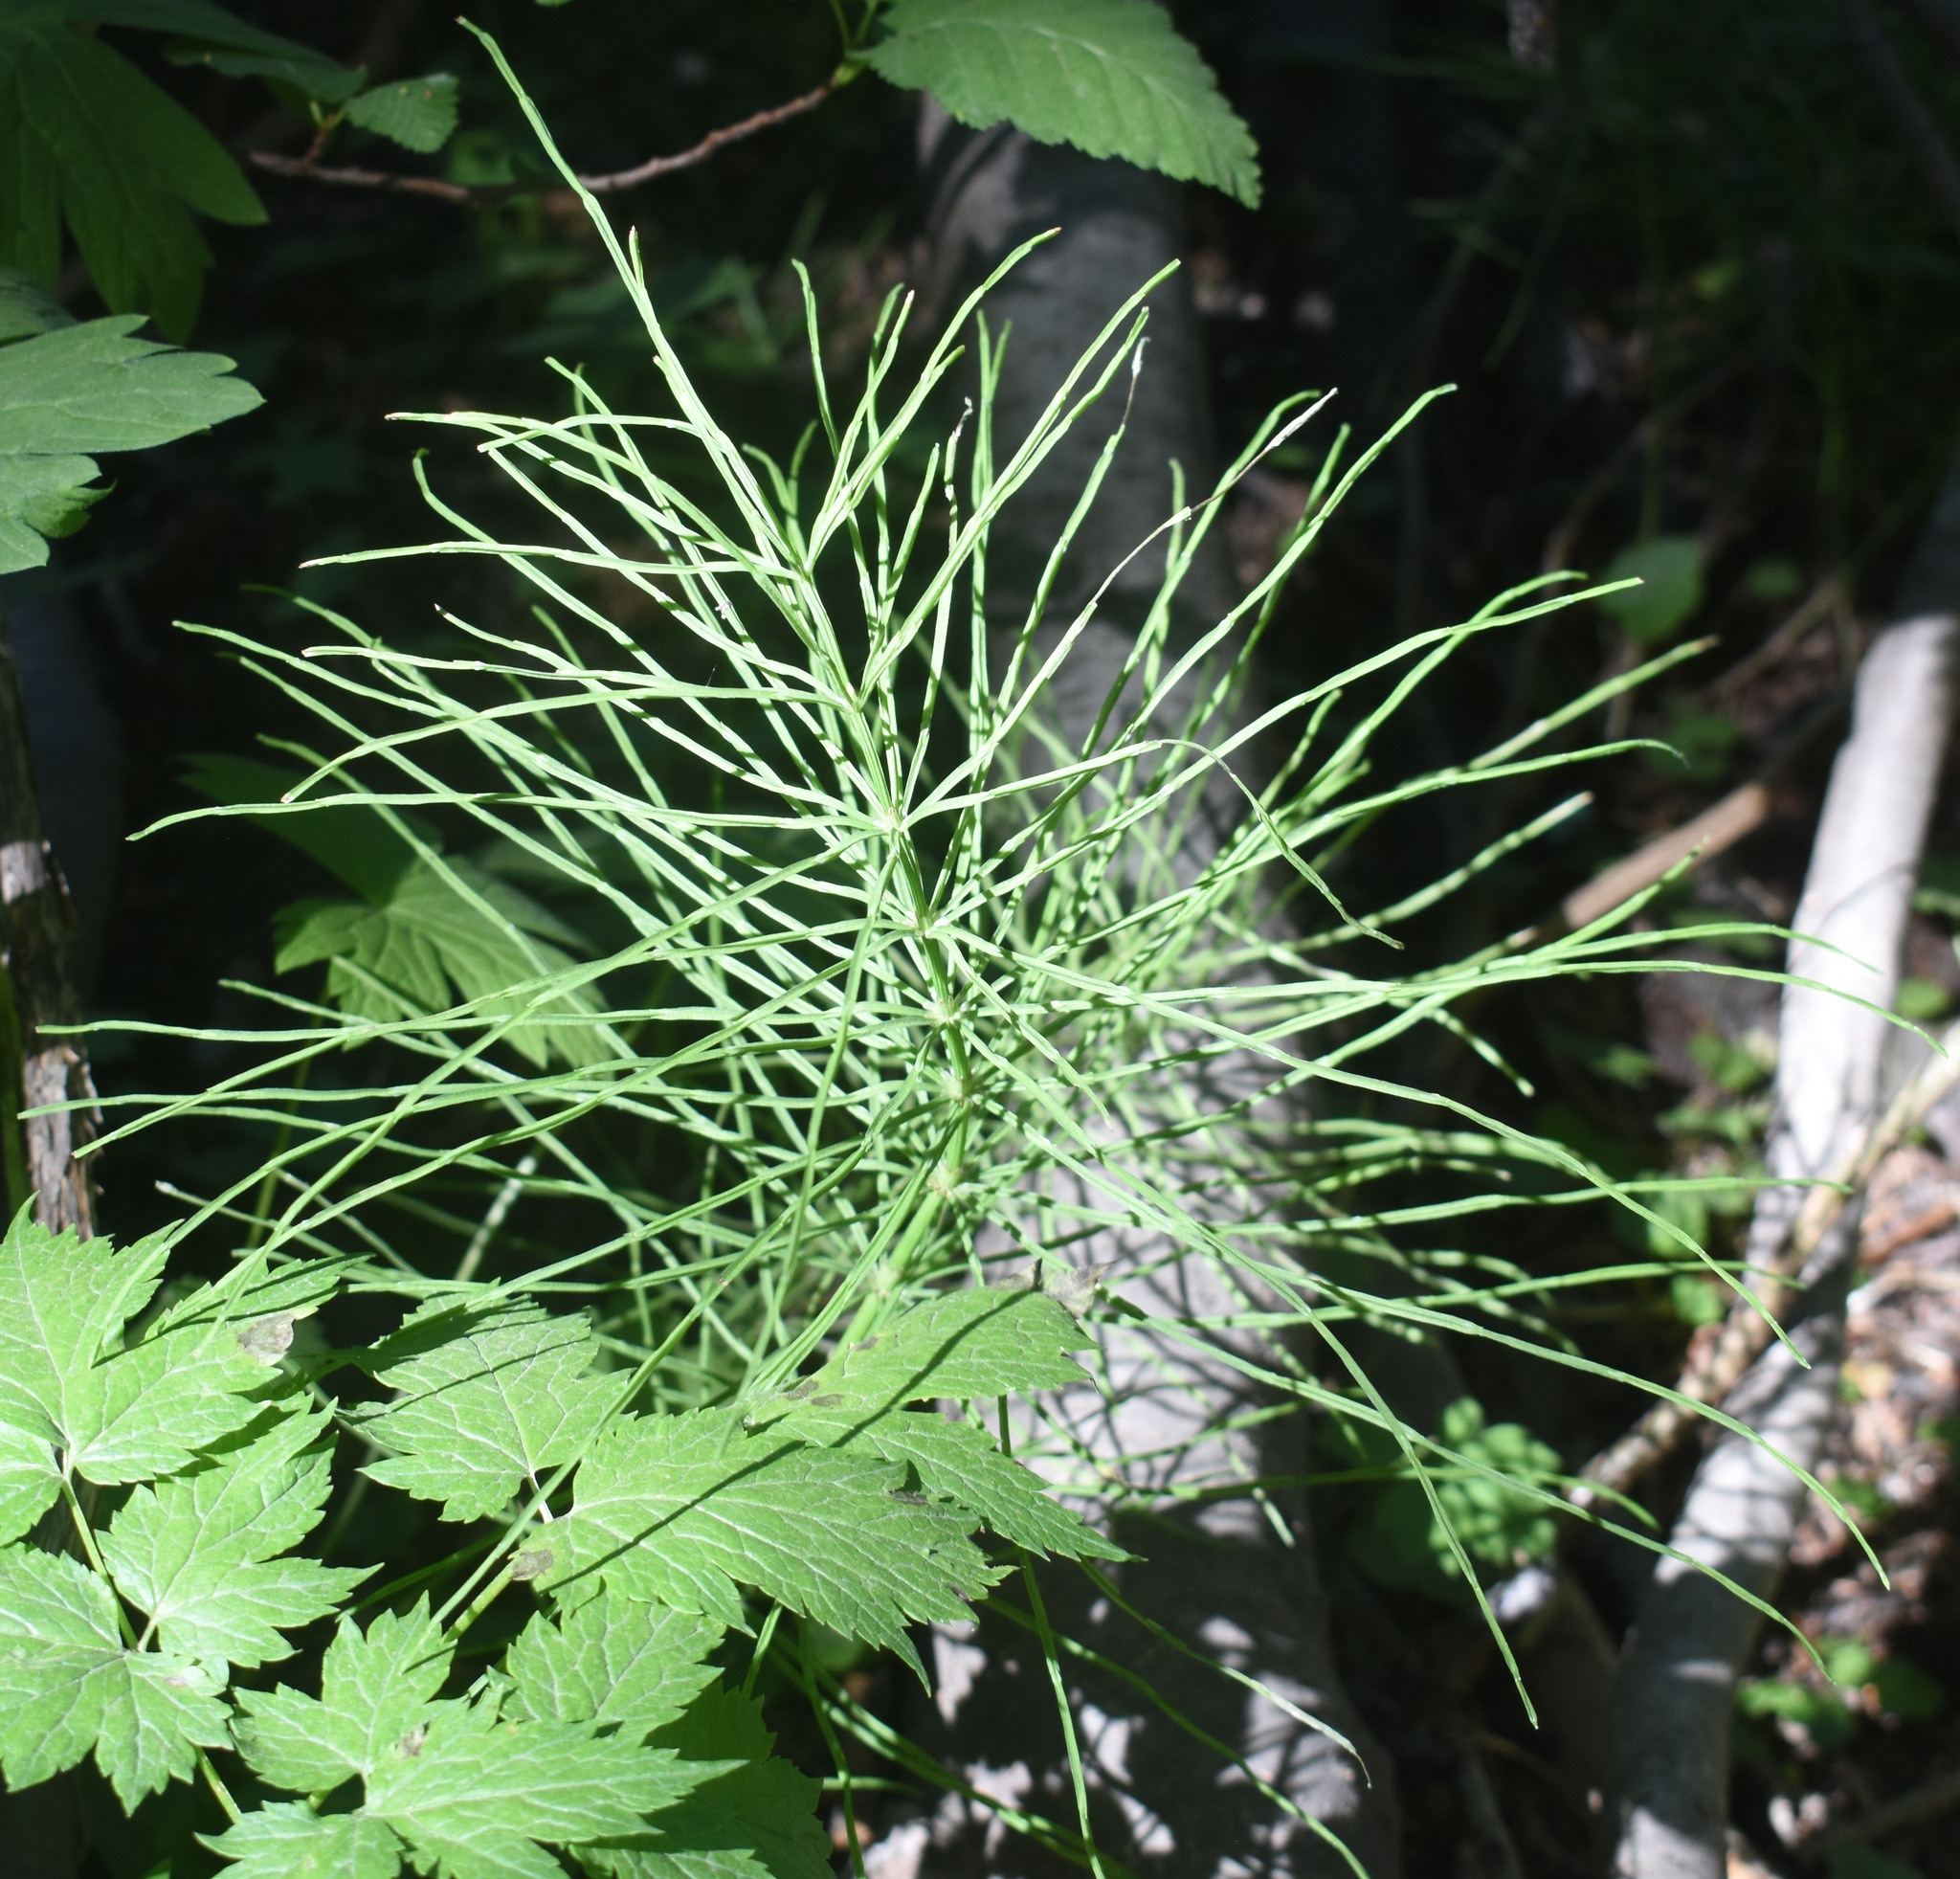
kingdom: Plantae
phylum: Tracheophyta
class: Polypodiopsida
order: Equisetales
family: Equisetaceae
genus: Equisetum
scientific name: Equisetum arvense
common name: Field horsetail
